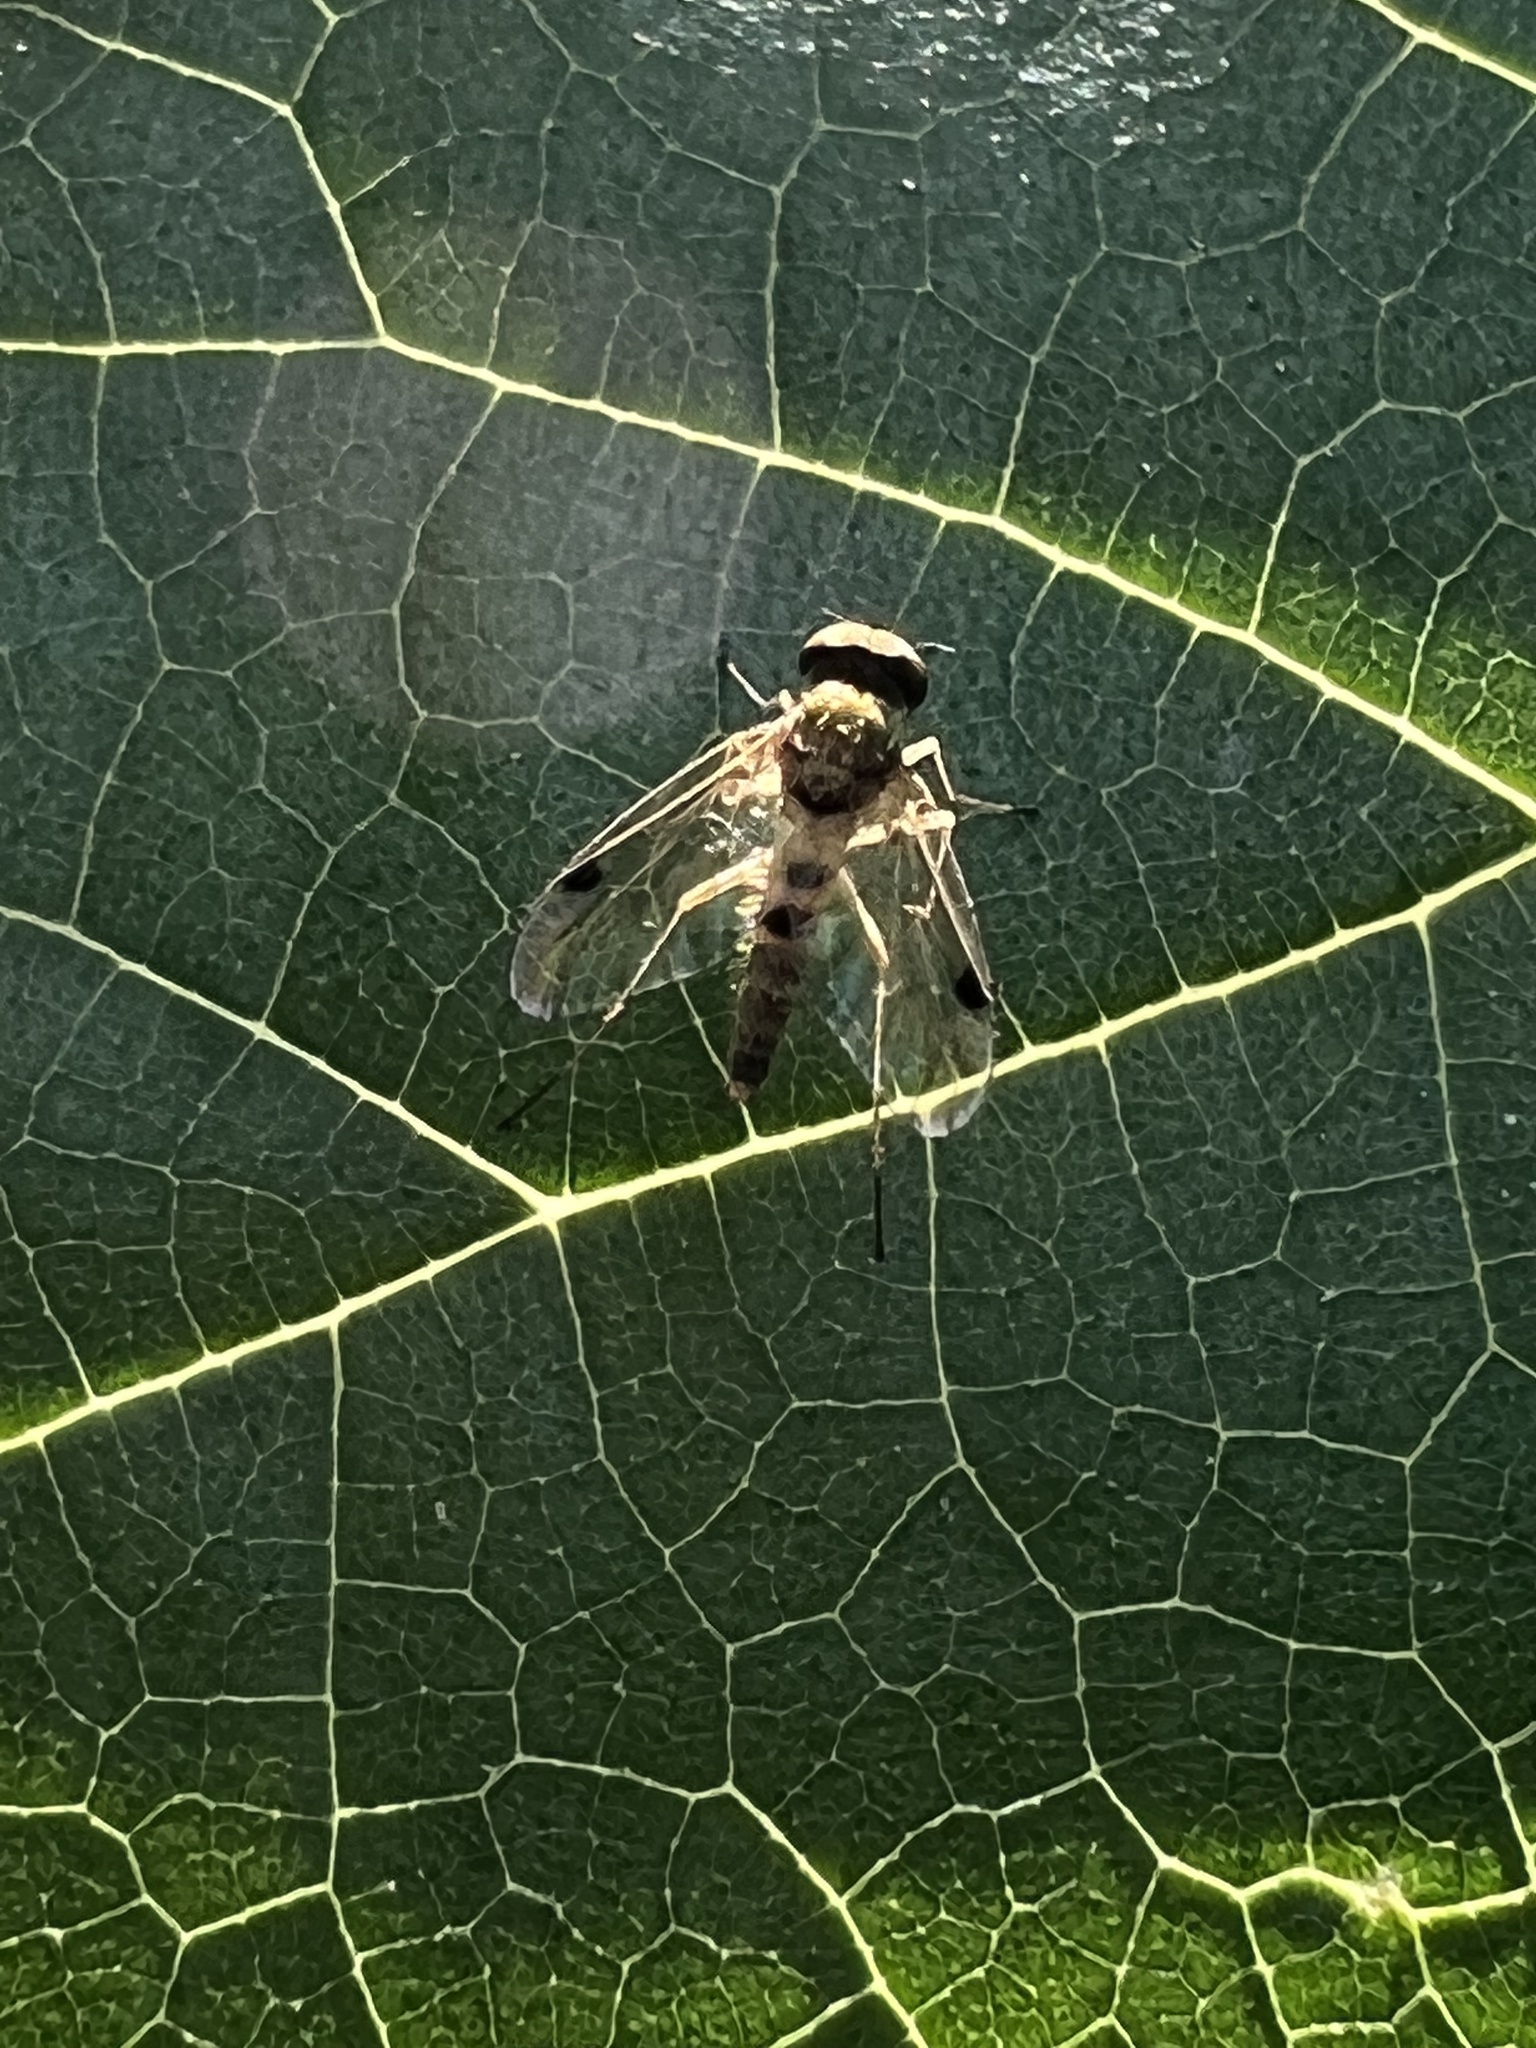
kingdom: Animalia
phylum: Arthropoda
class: Insecta
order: Diptera
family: Rhagionidae
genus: Chrysopilus
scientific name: Chrysopilus modestus
